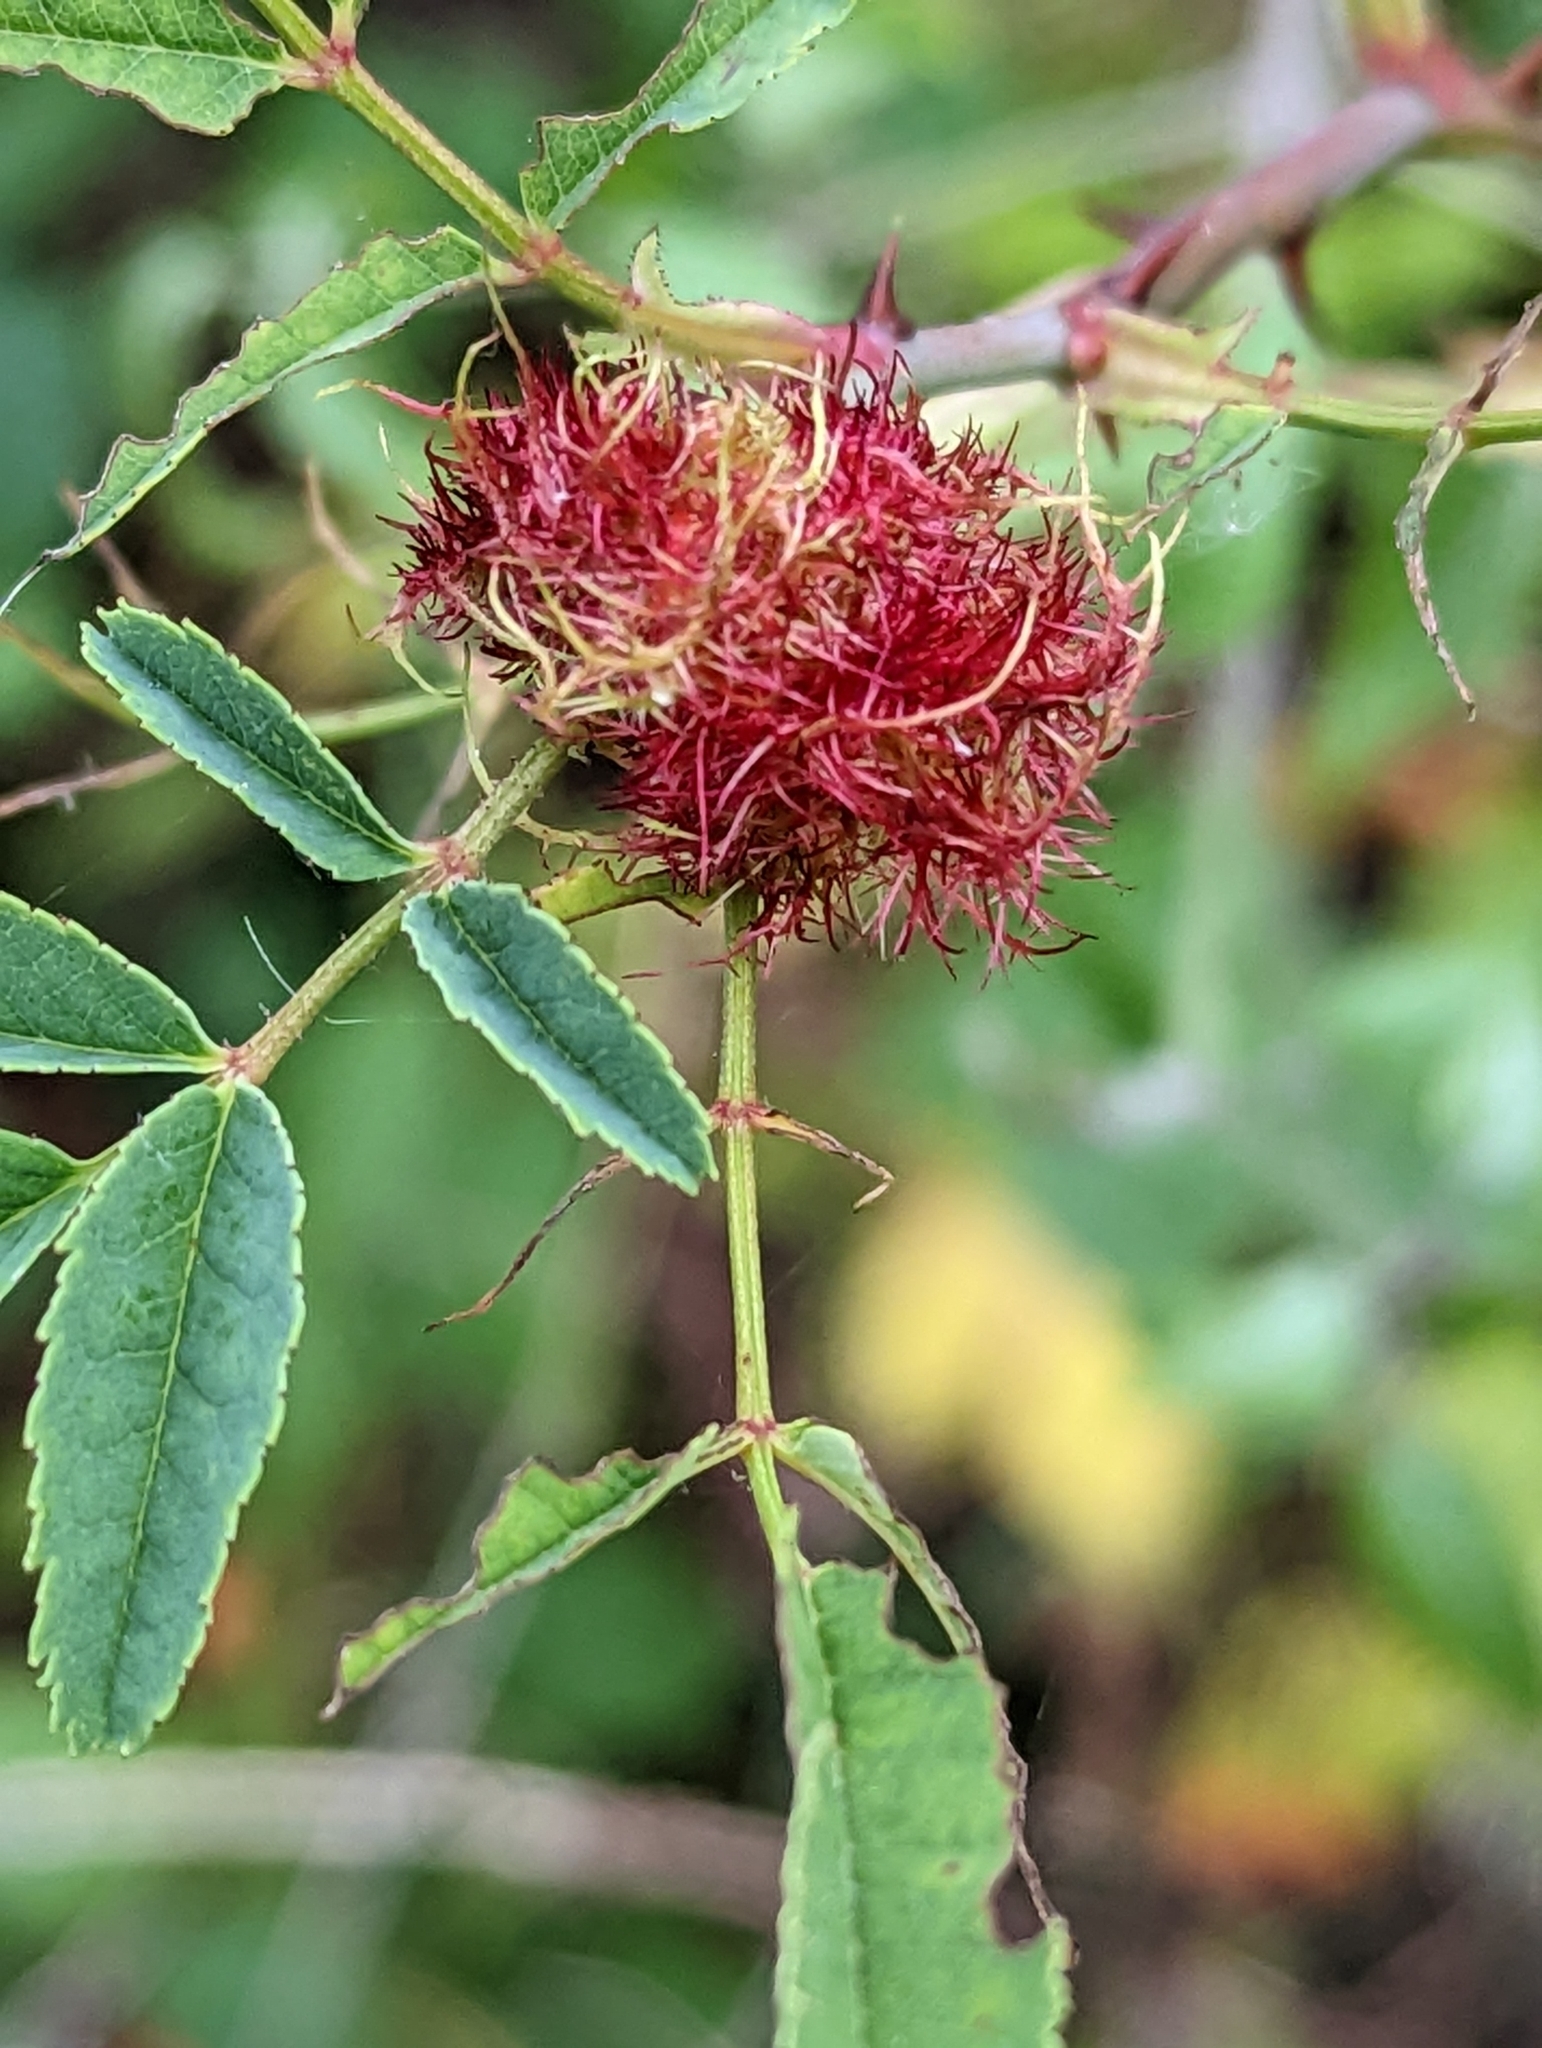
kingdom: Animalia
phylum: Arthropoda
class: Insecta
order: Hymenoptera
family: Cynipidae
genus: Diplolepis
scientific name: Diplolepis rosae
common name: Bedeguar gall
